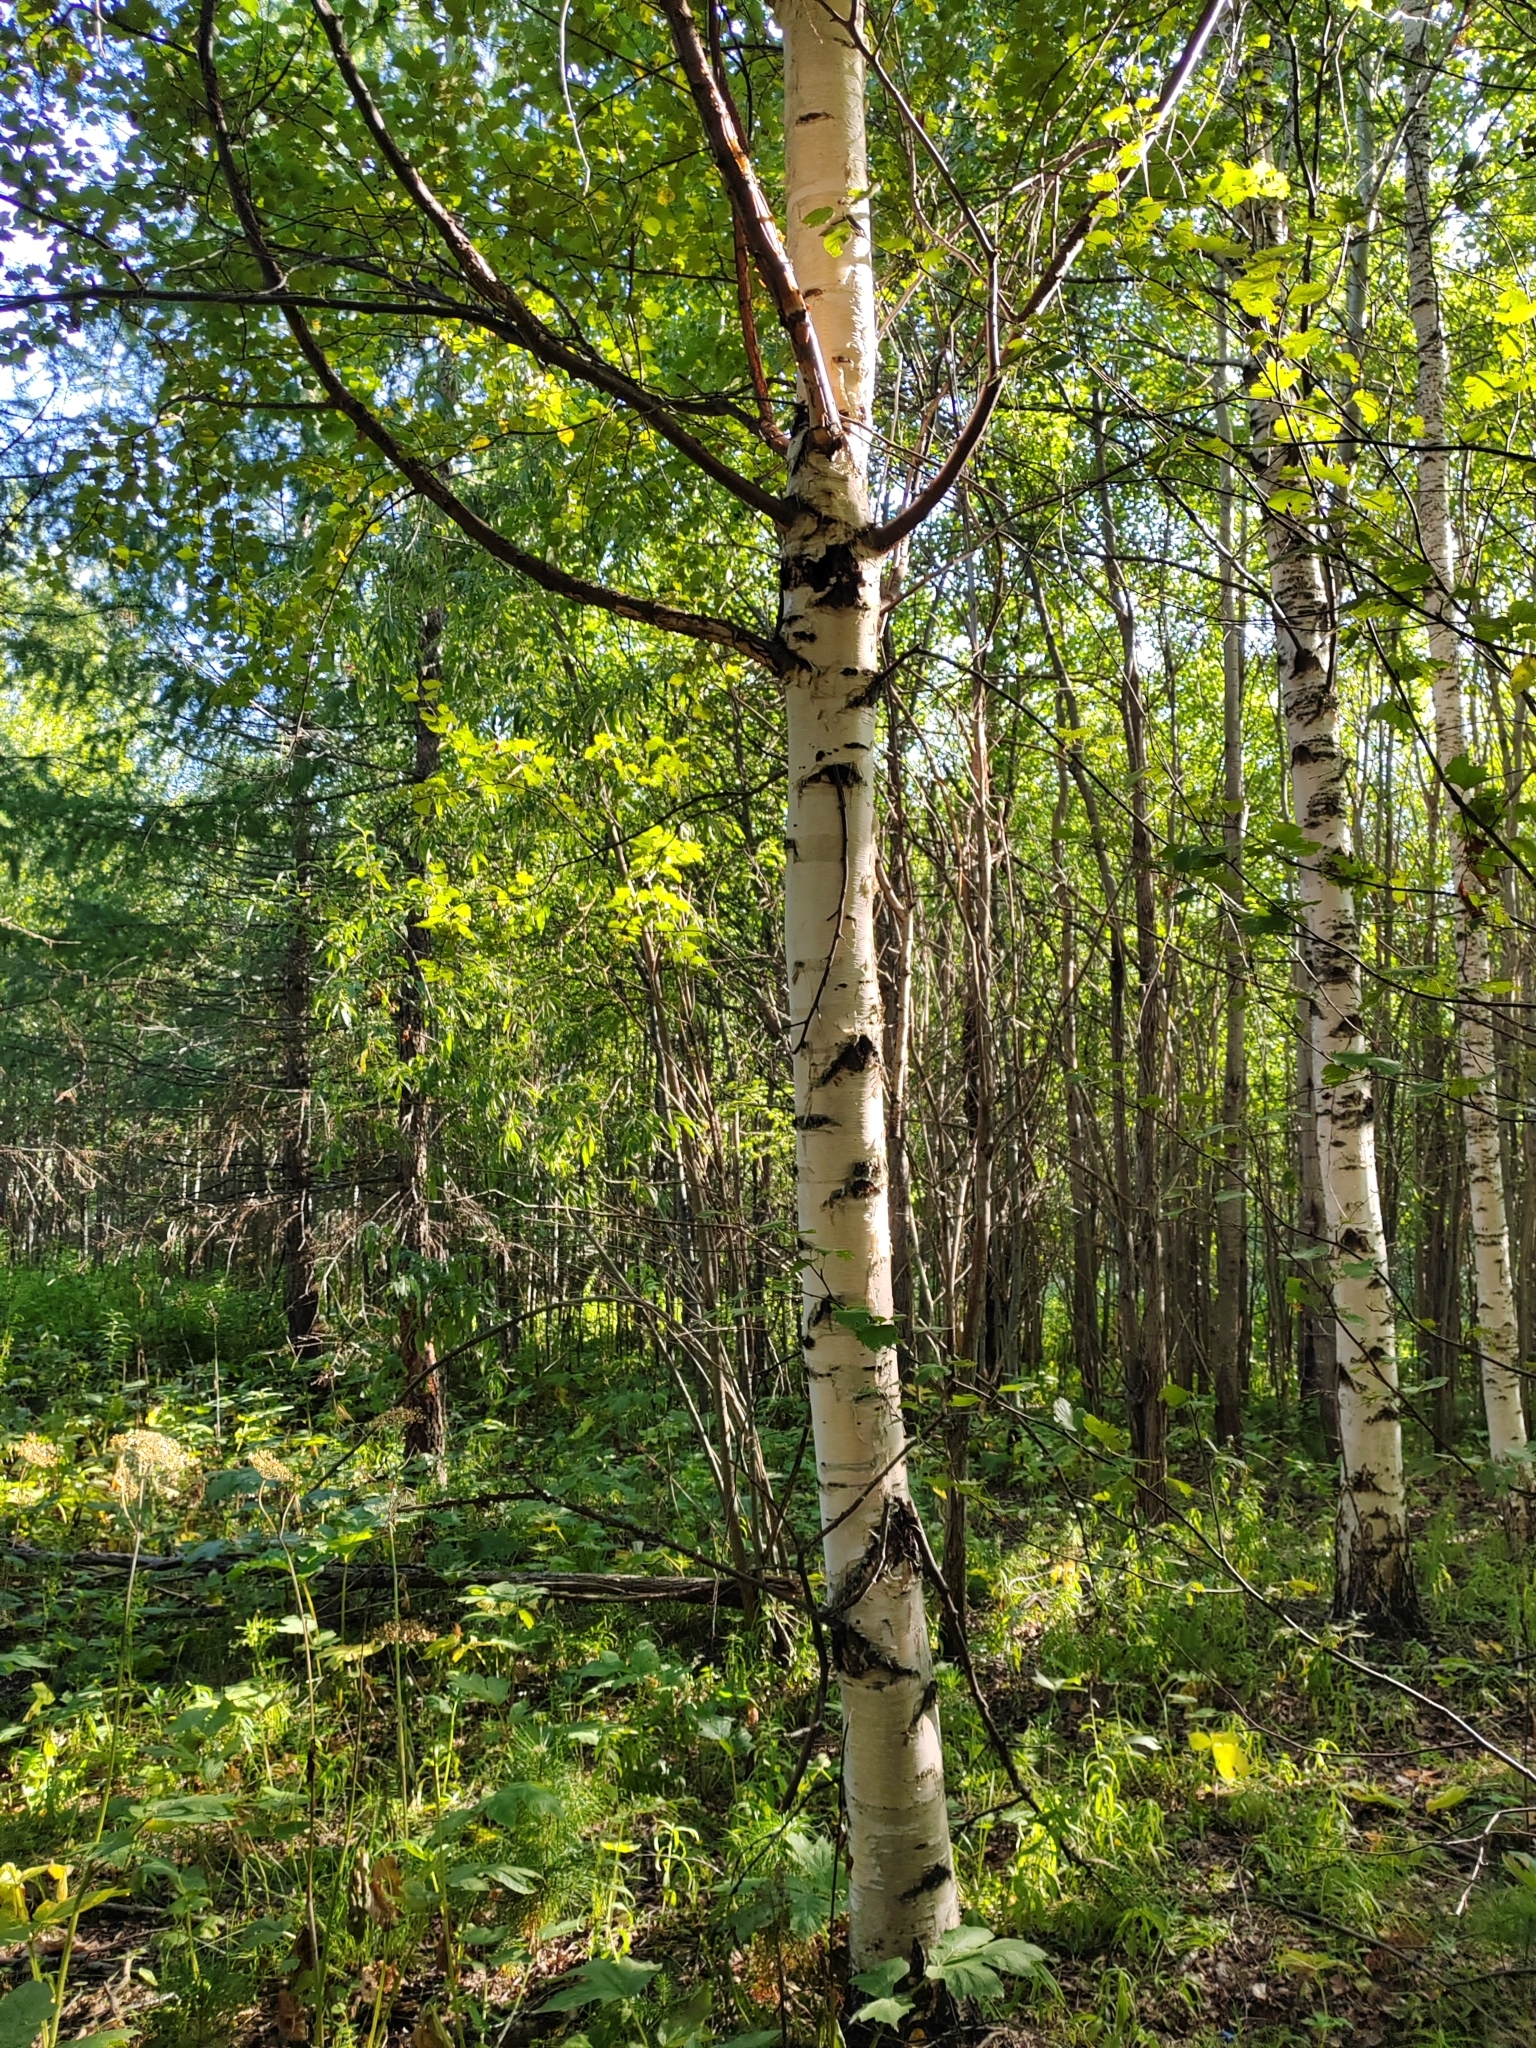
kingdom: Plantae
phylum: Tracheophyta
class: Magnoliopsida
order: Fagales
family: Betulaceae
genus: Betula
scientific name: Betula pendula
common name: Silver birch
